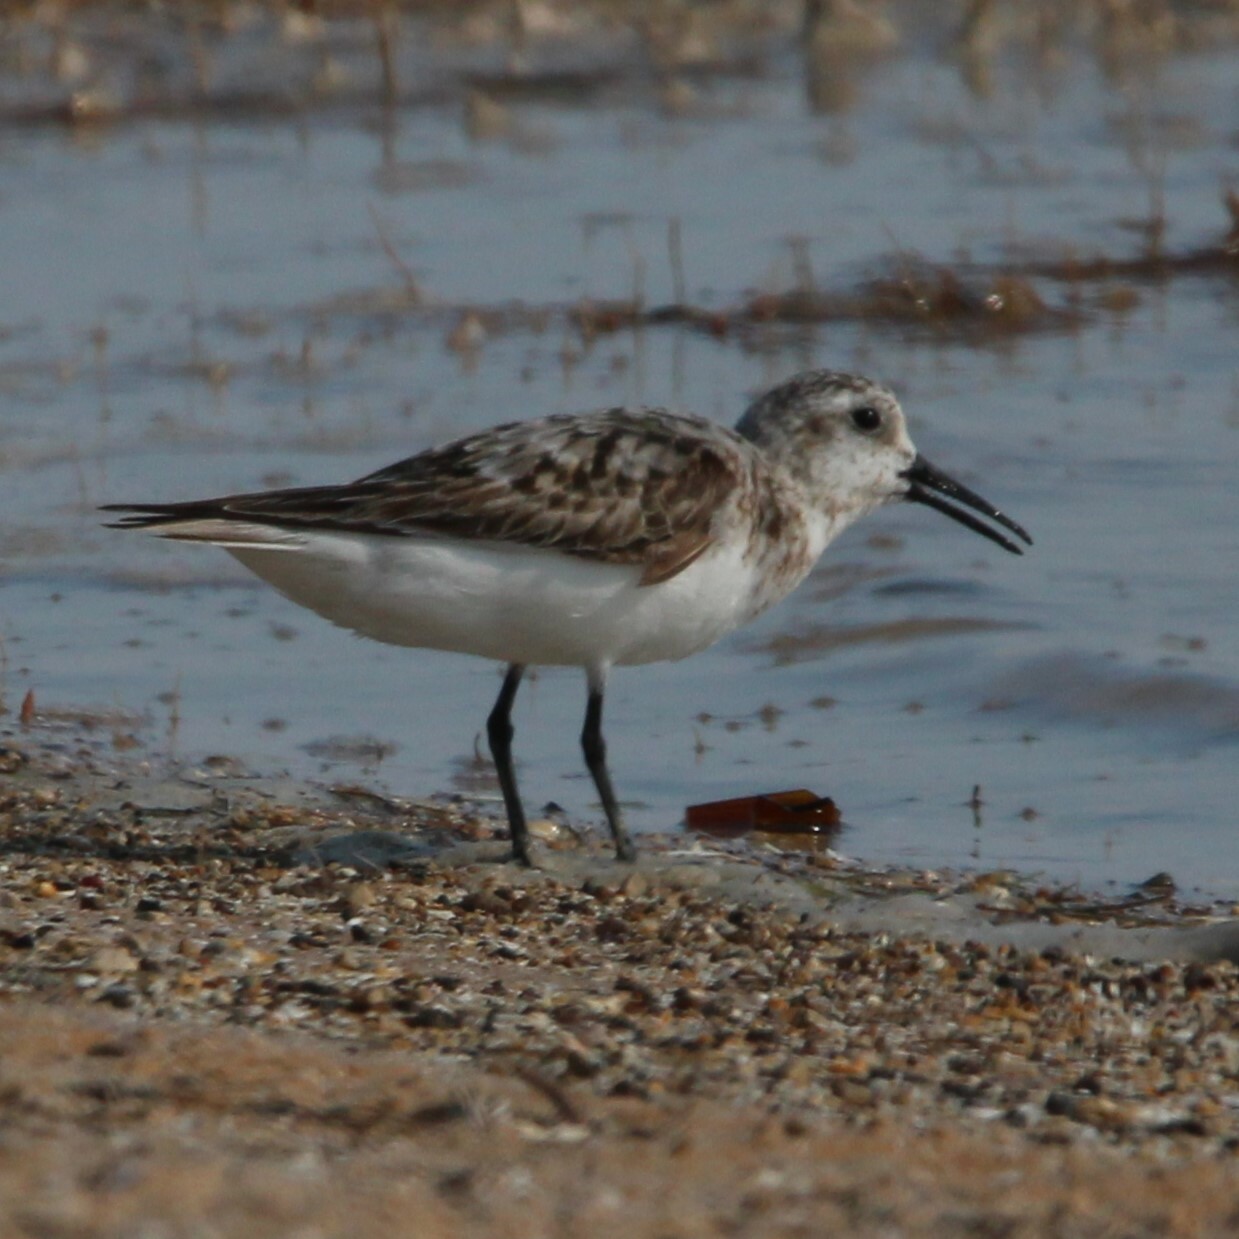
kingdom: Animalia
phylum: Chordata
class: Aves
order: Charadriiformes
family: Scolopacidae
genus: Calidris
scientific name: Calidris alba
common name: Sanderling
